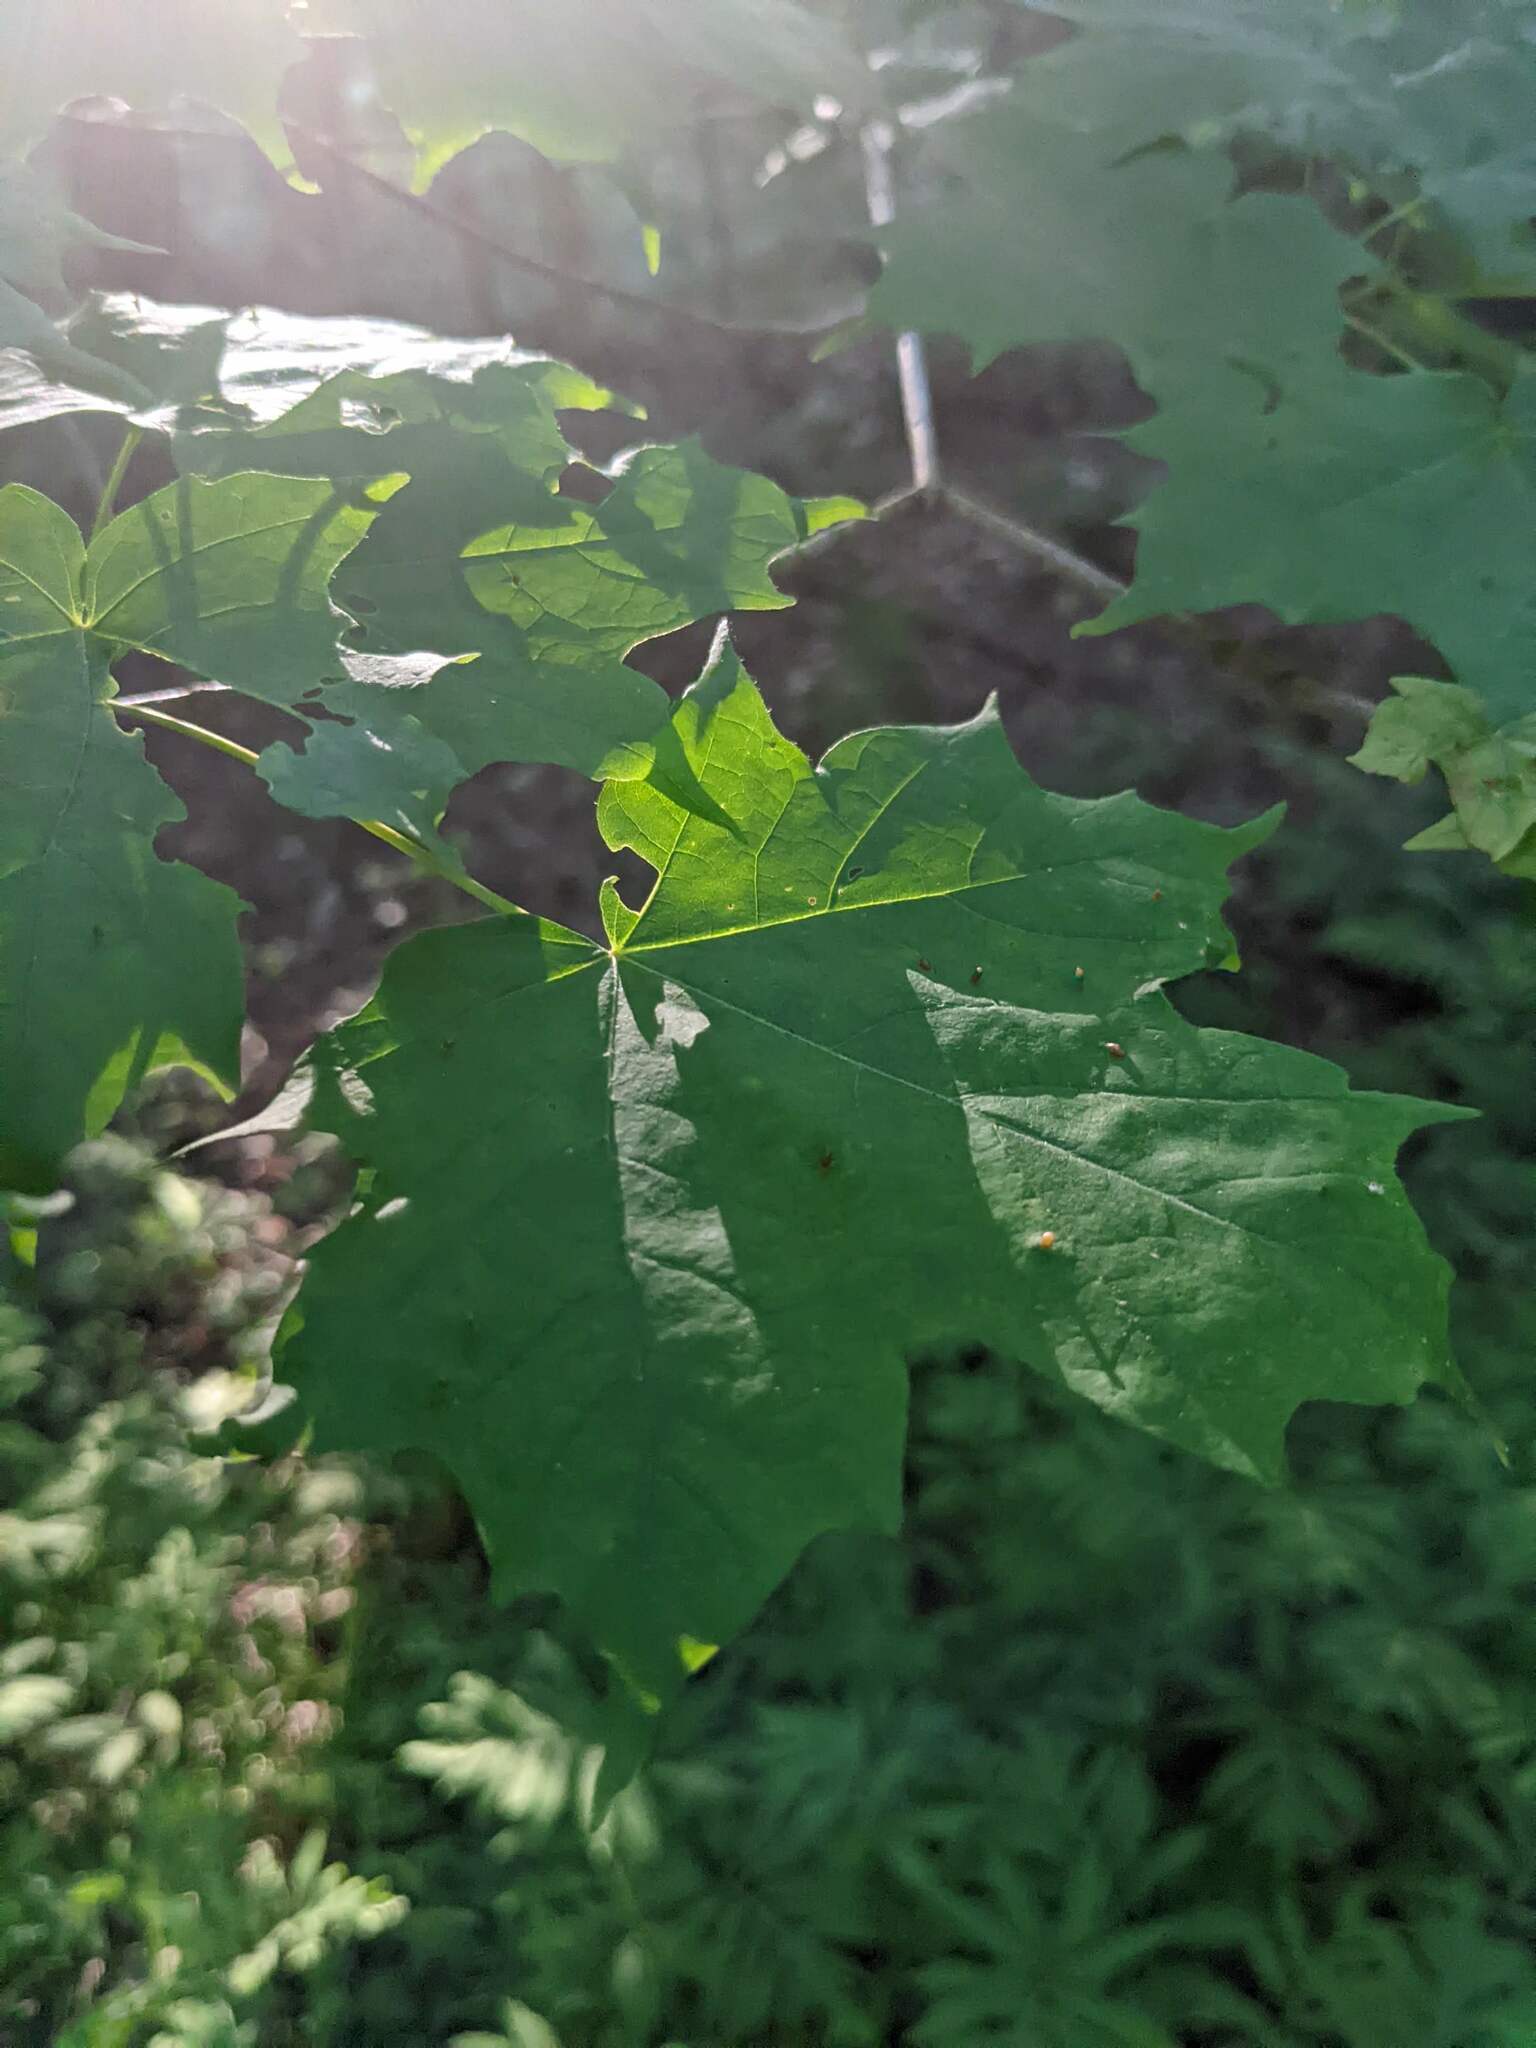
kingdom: Animalia
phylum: Arthropoda
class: Arachnida
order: Trombidiformes
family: Eriophyidae
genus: Vasates
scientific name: Vasates aceriscrumena
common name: Maple spindle gall mite
